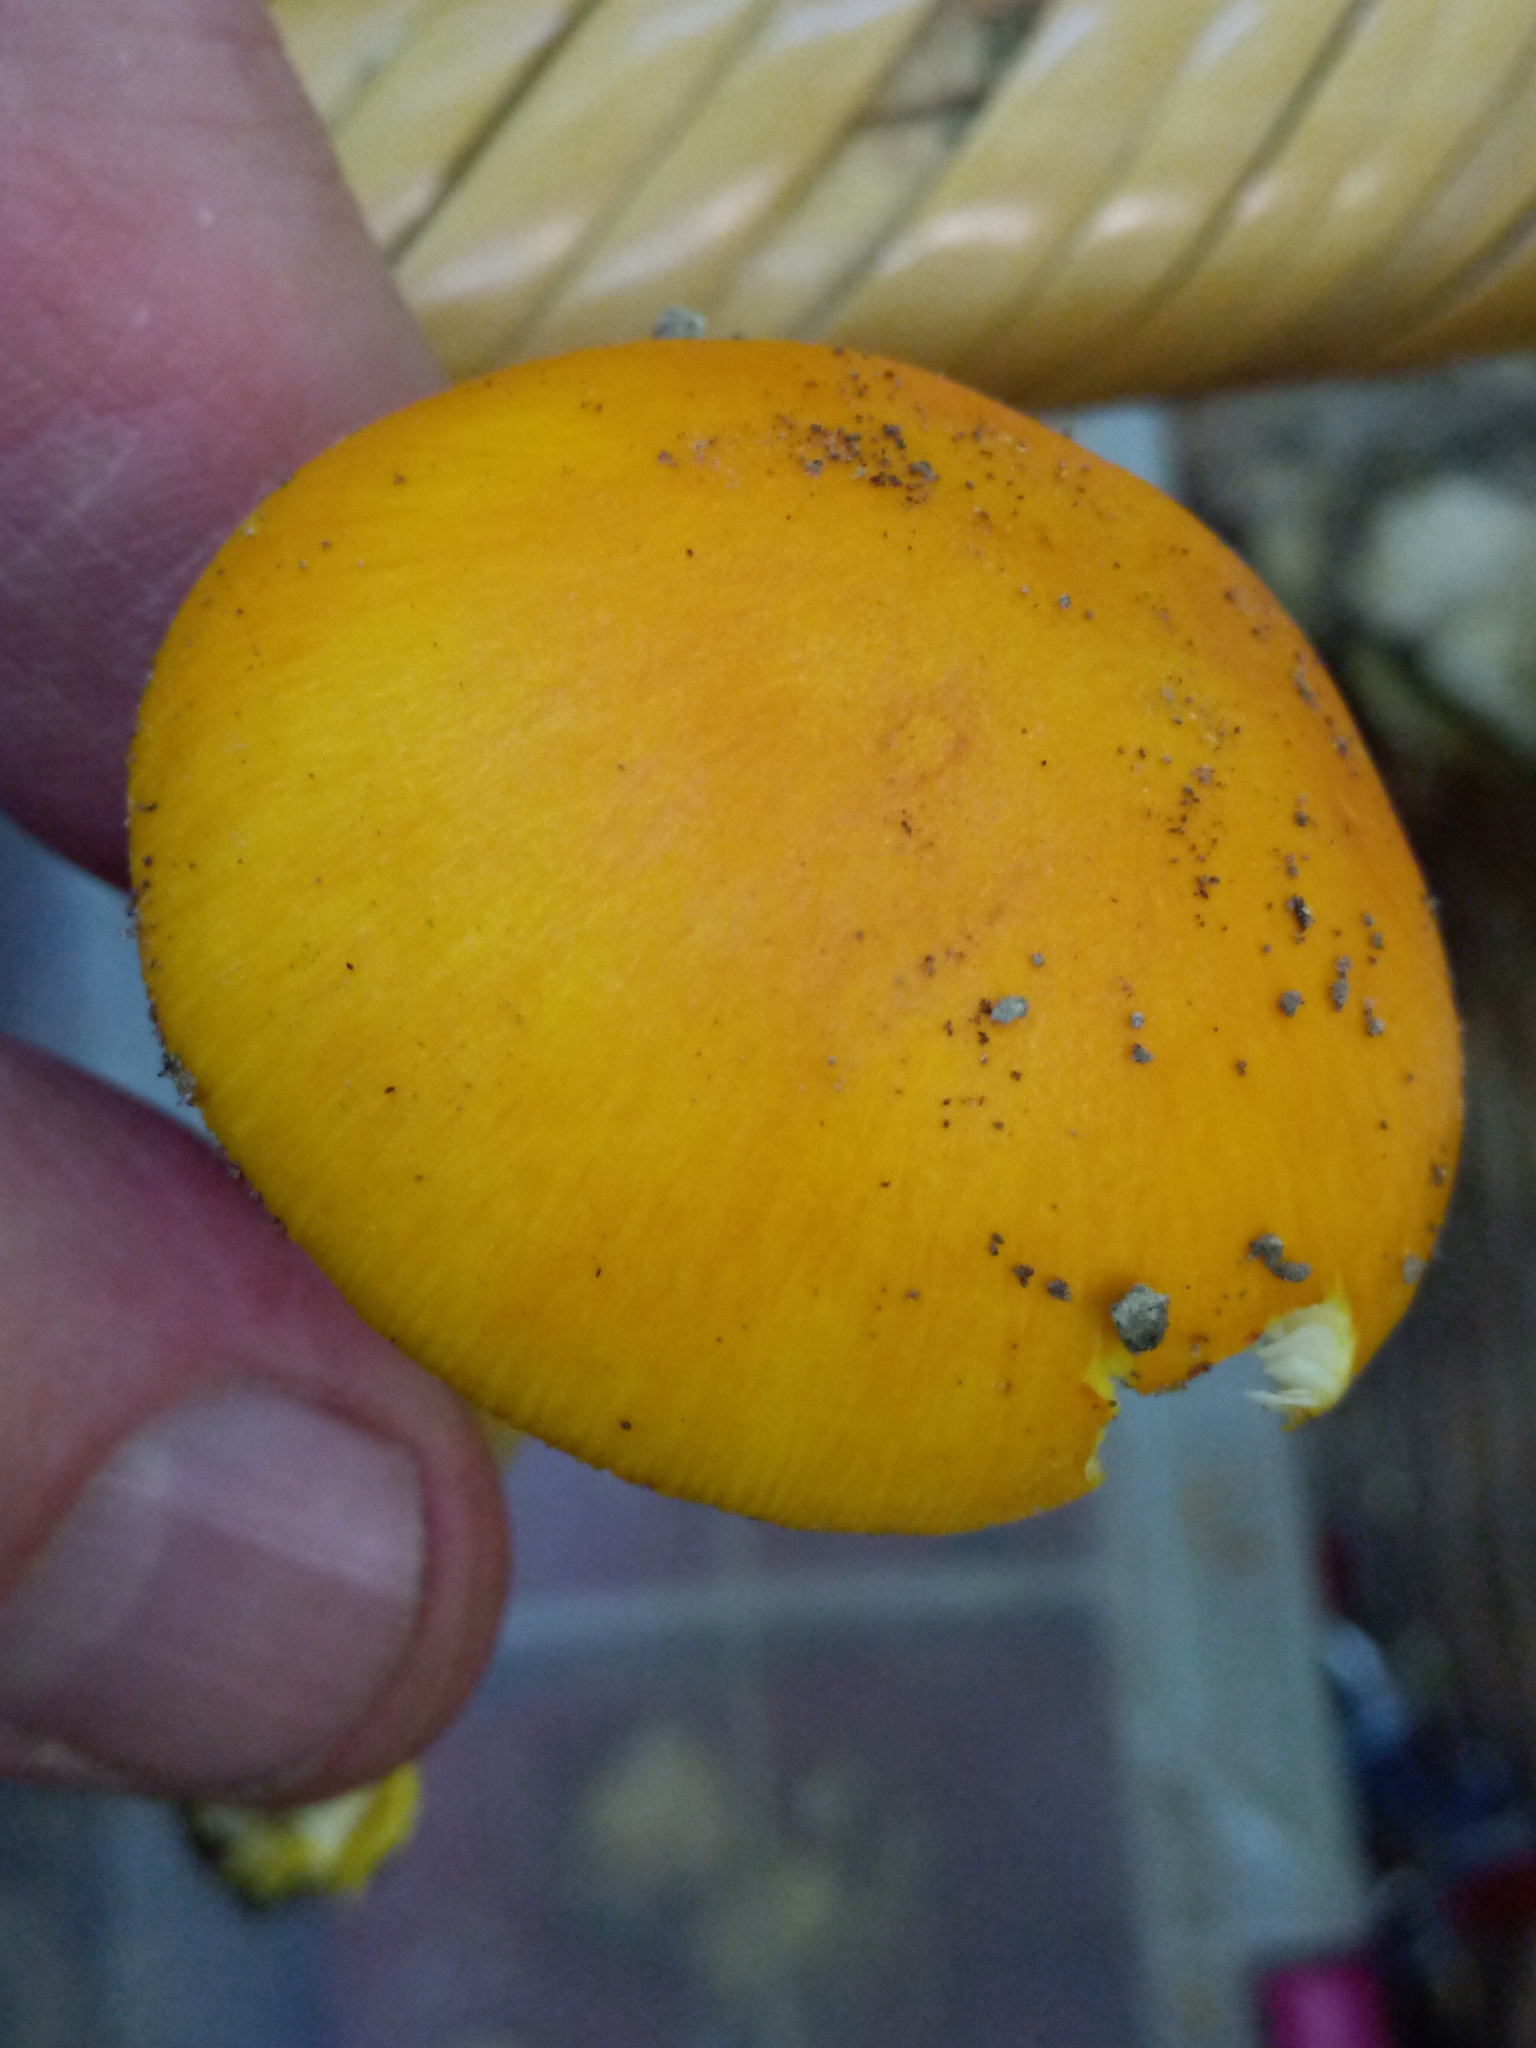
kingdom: Fungi
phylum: Basidiomycota
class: Agaricomycetes
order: Agaricales
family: Amanitaceae
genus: Amanita
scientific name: Amanita flavoconia
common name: Yellow patches
